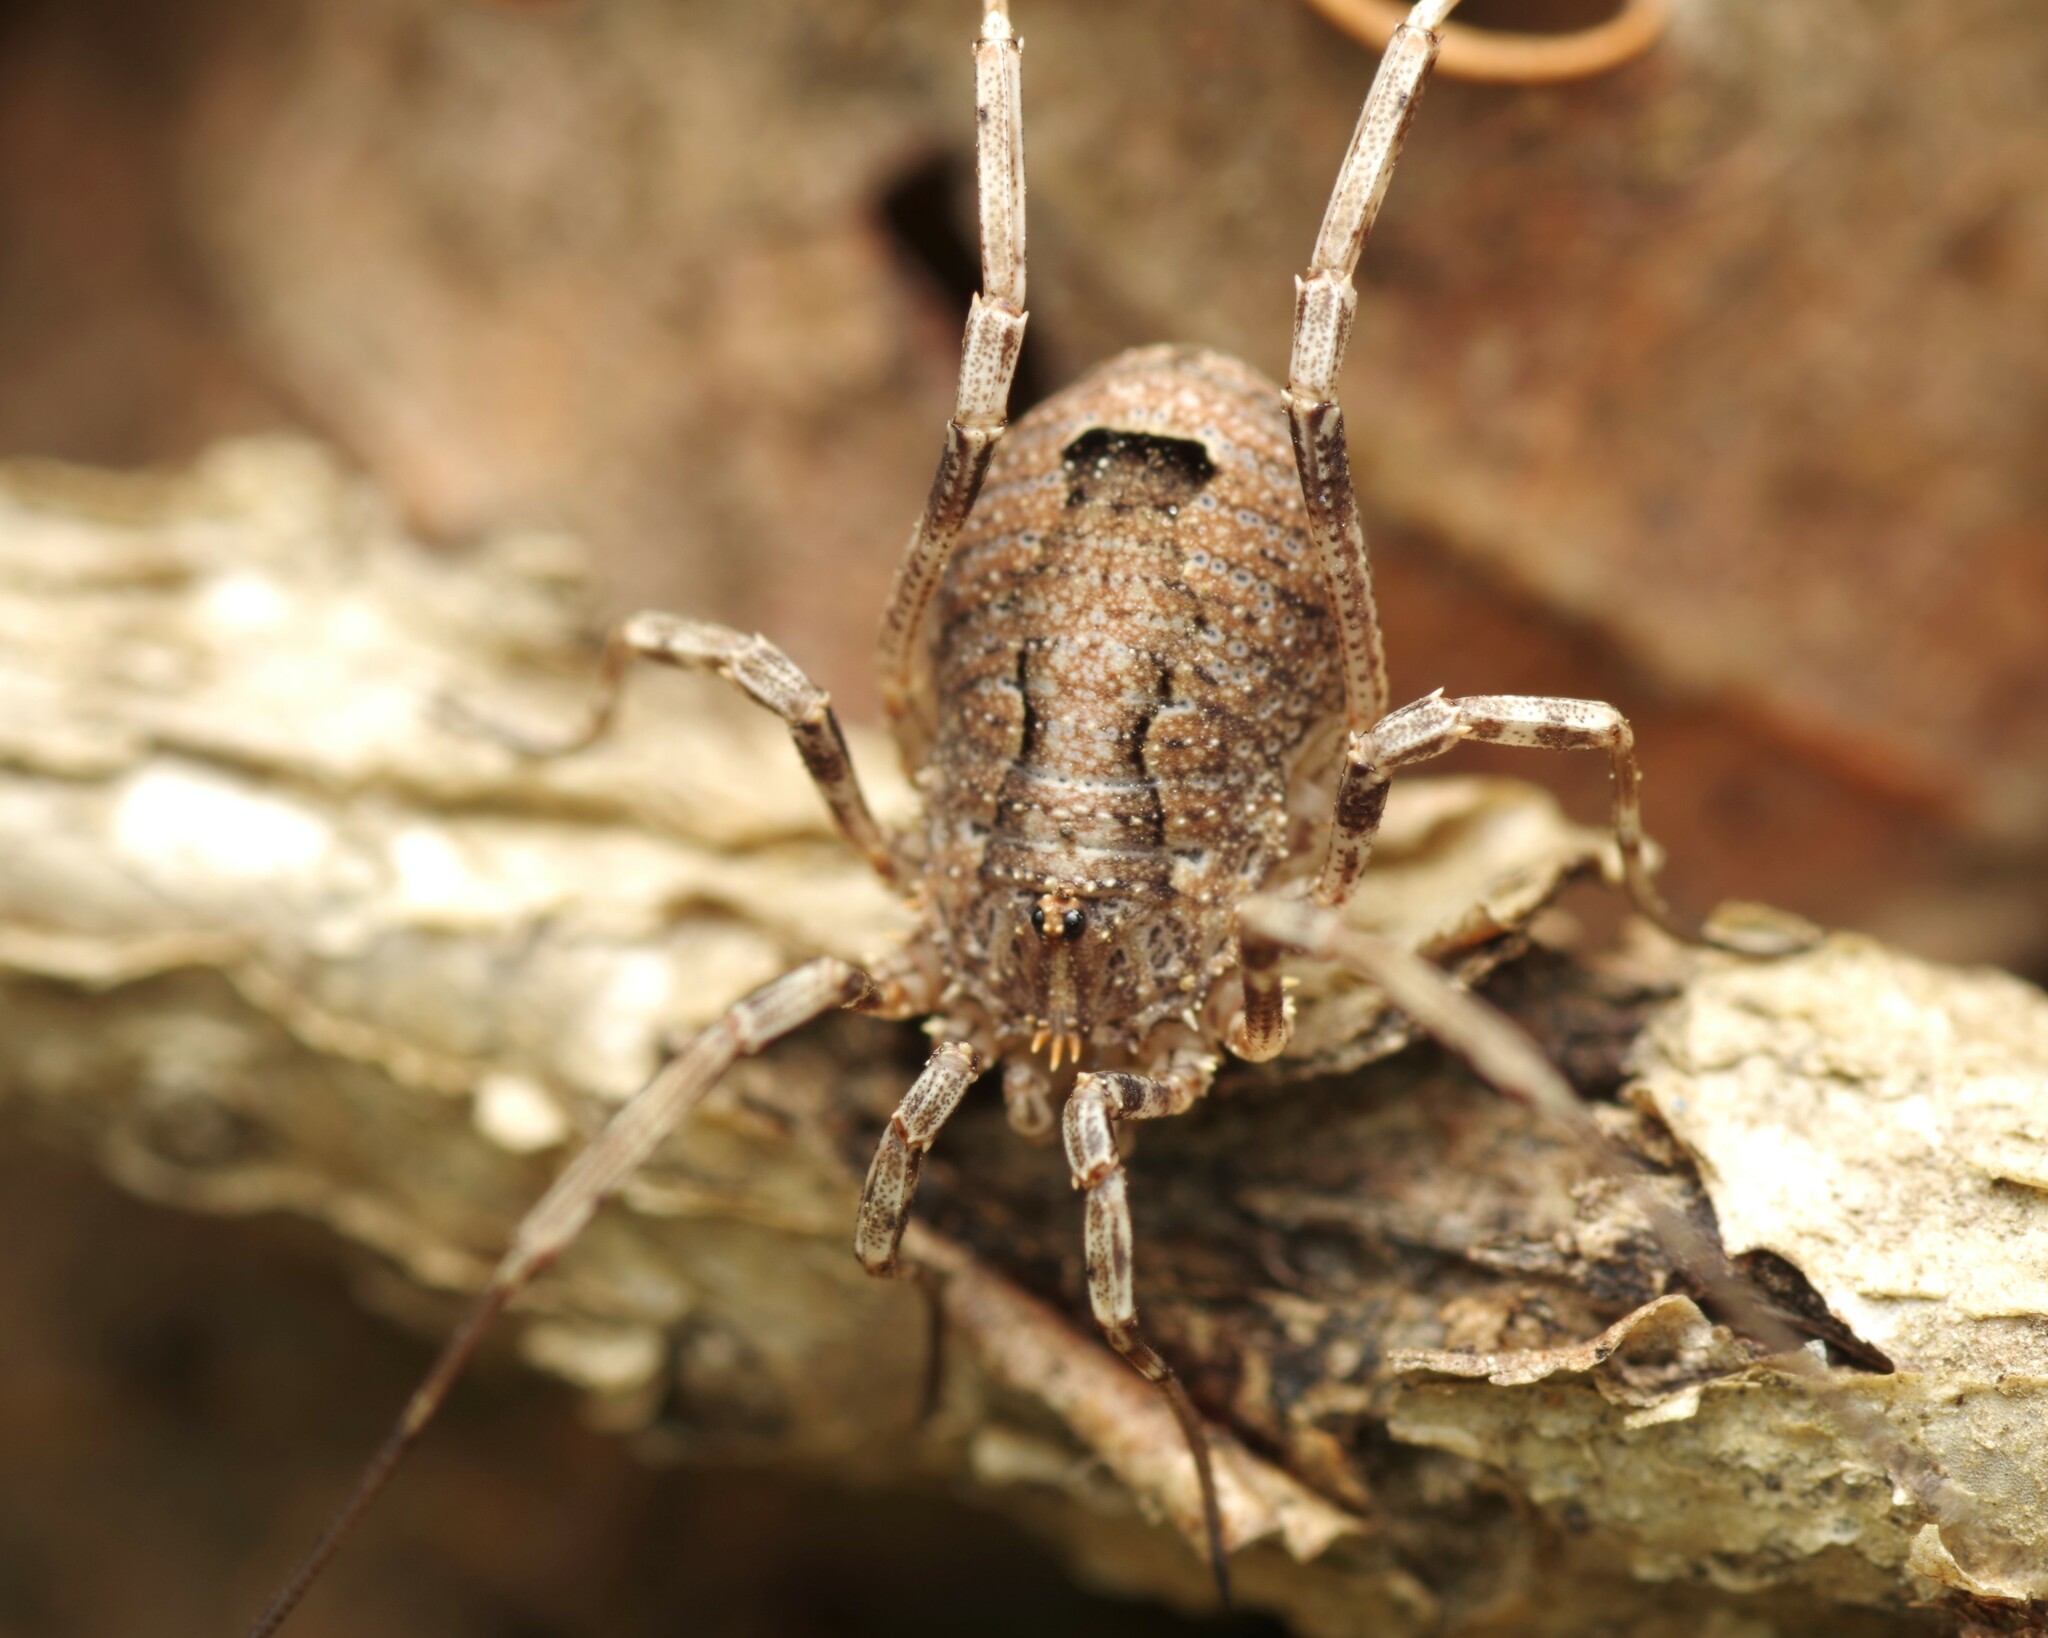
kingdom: Animalia
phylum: Arthropoda
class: Arachnida
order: Opiliones
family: Phalangiidae
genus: Odiellus
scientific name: Odiellus spinosus
